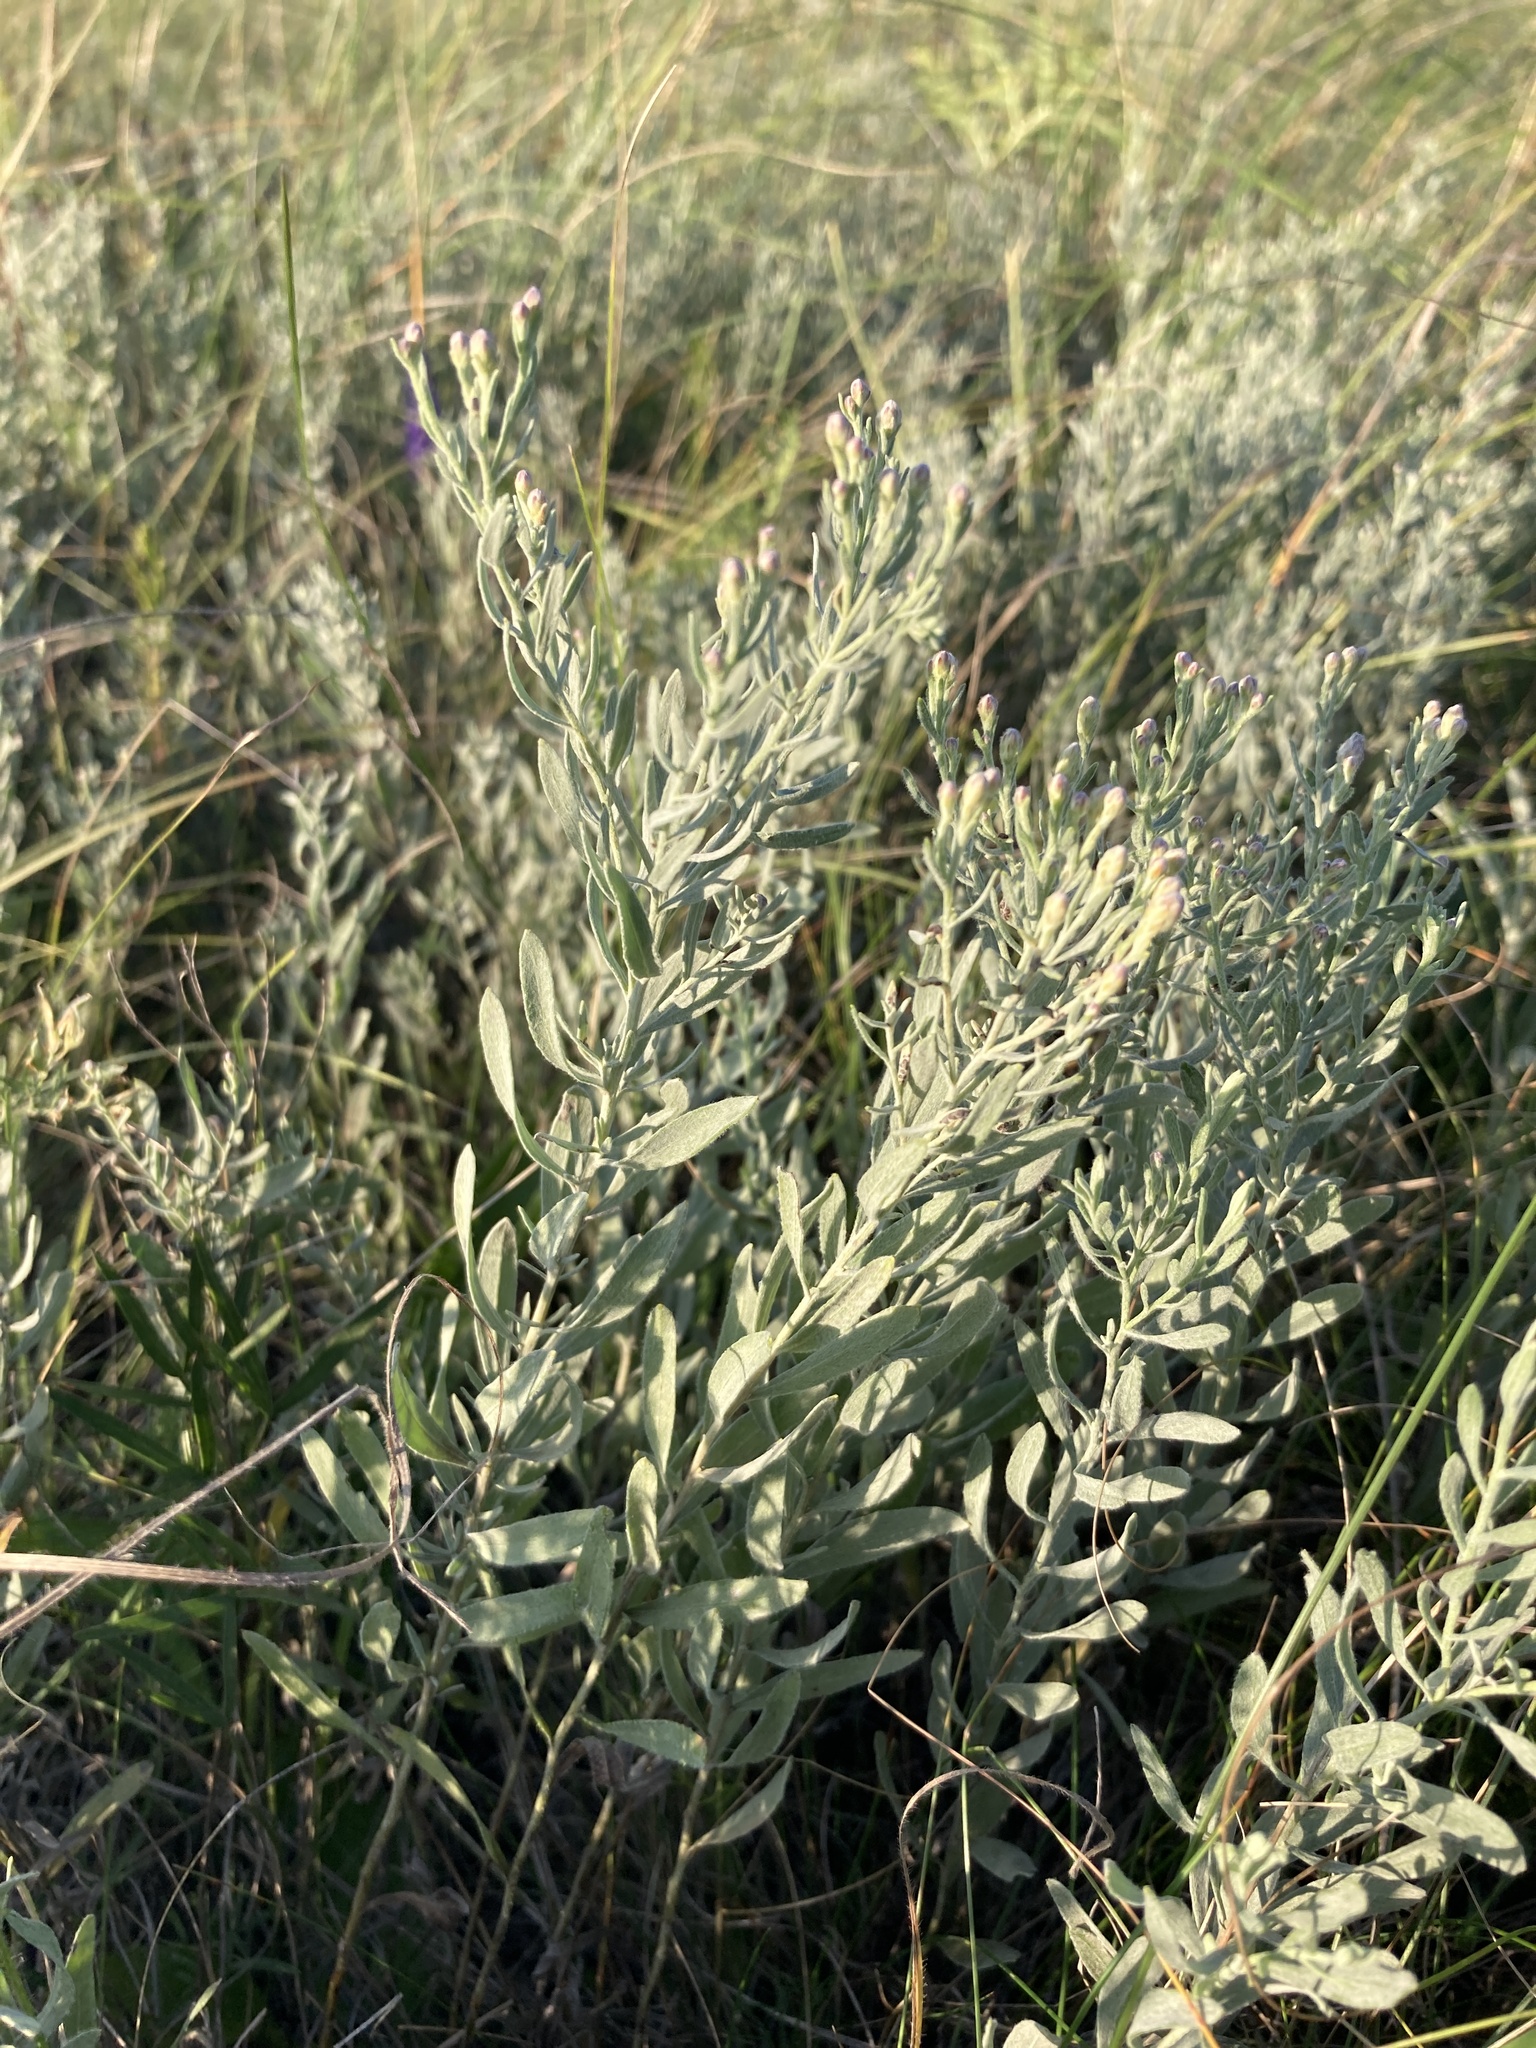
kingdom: Plantae
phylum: Tracheophyta
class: Magnoliopsida
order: Asterales
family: Asteraceae
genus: Galatella
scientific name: Galatella villosa
